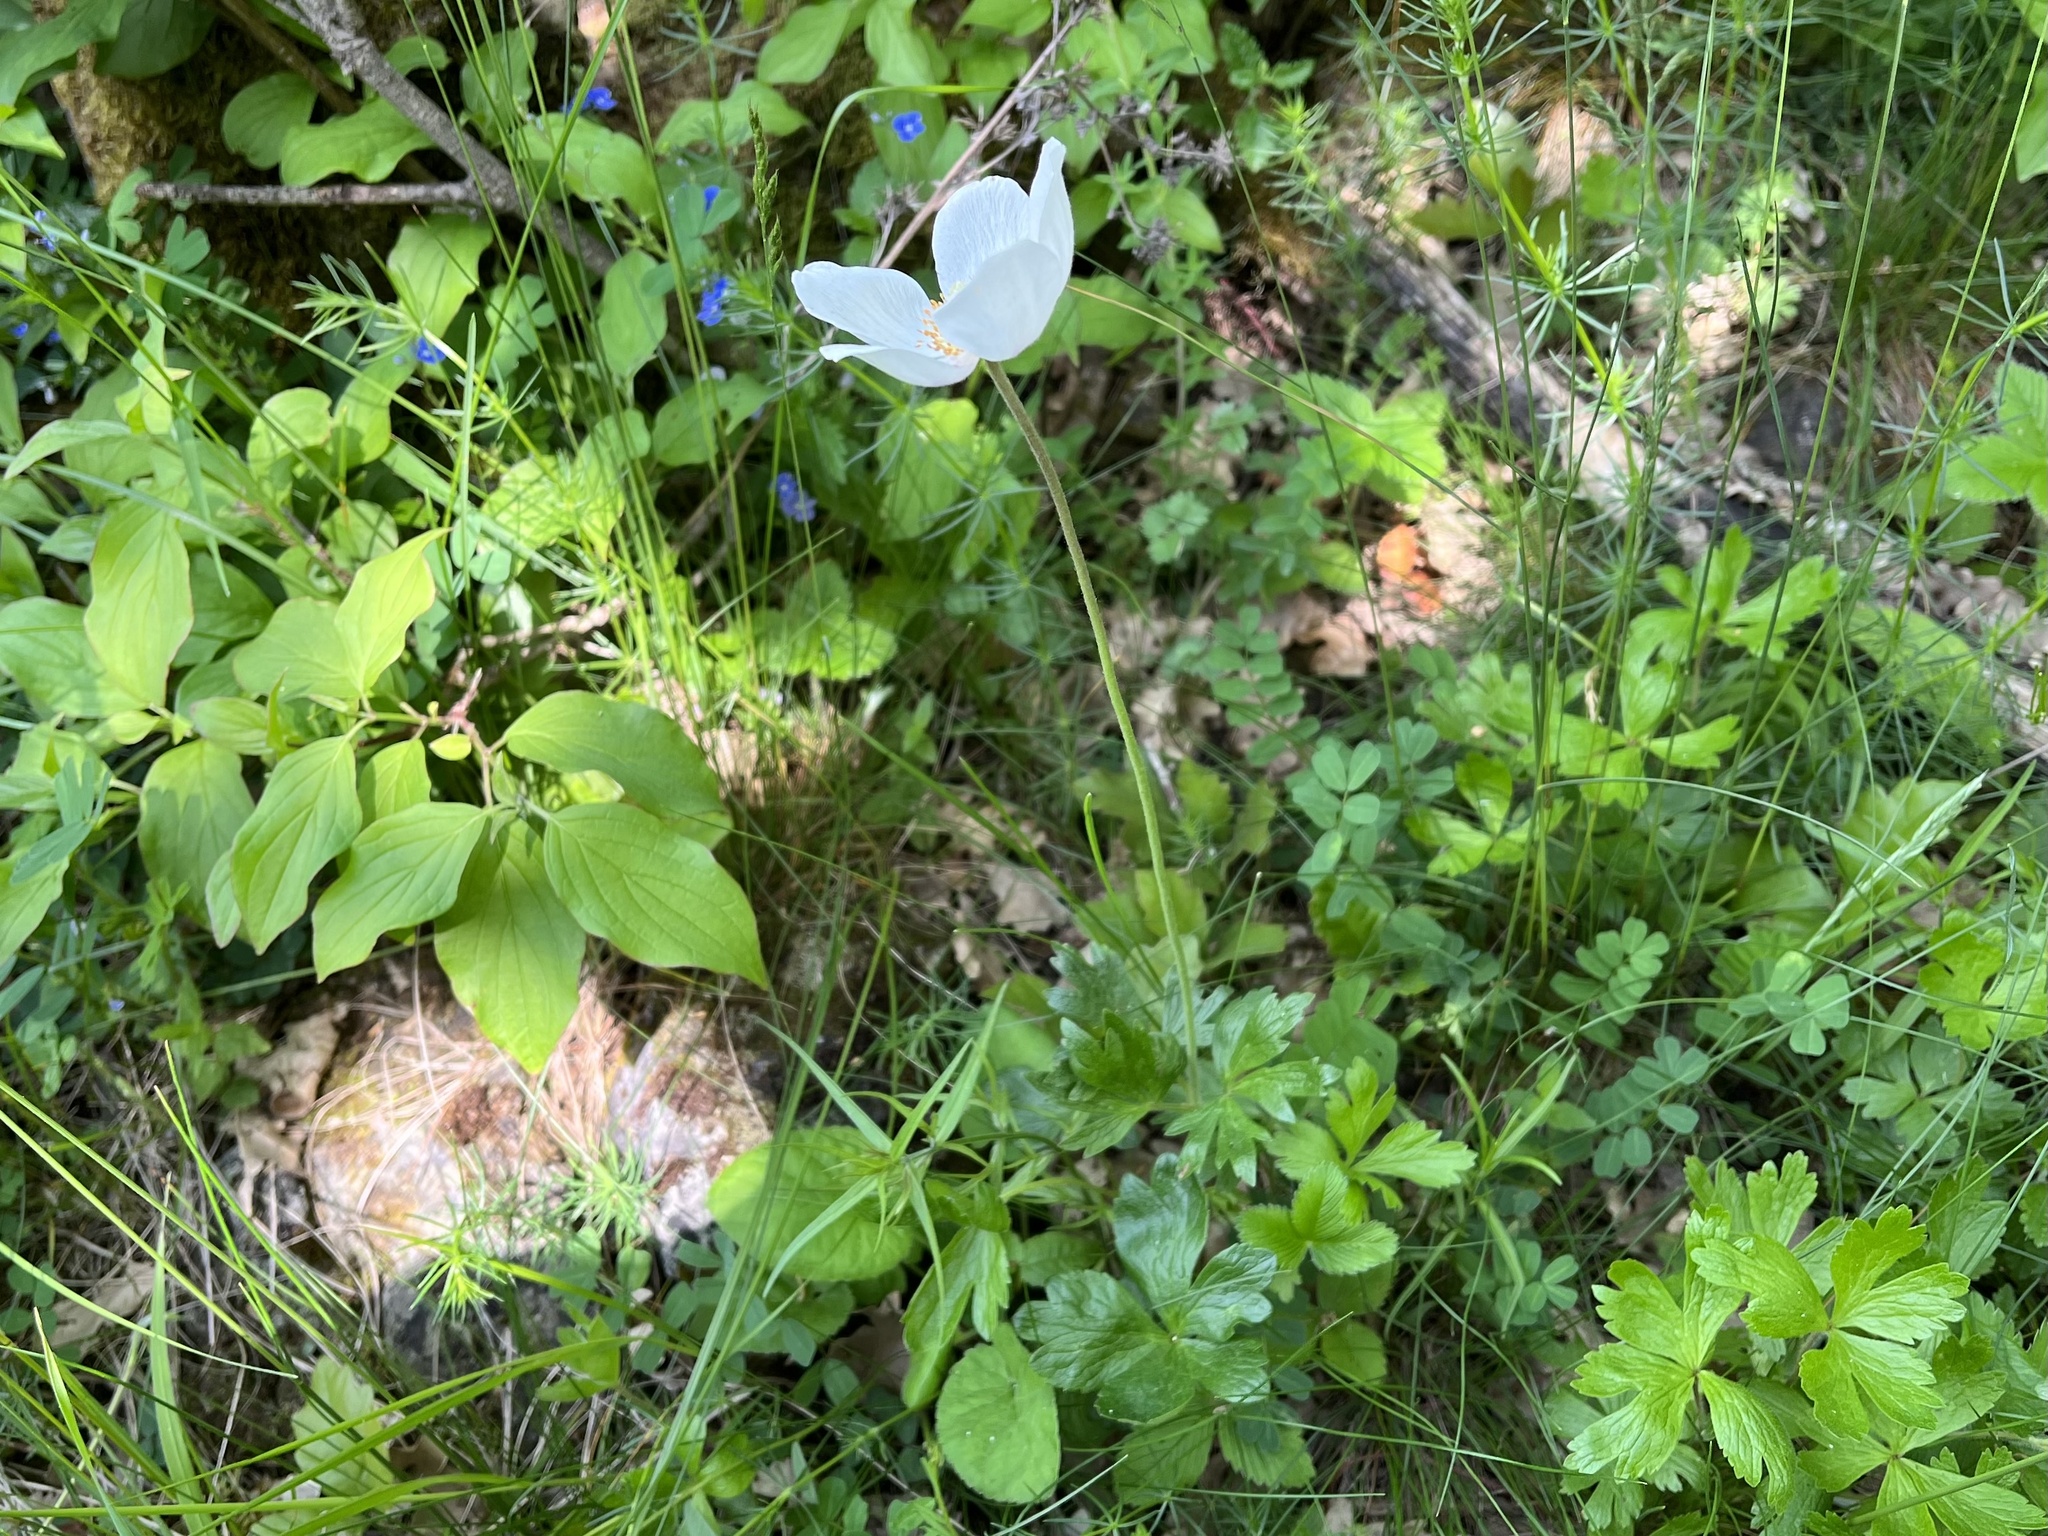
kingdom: Plantae
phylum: Tracheophyta
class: Magnoliopsida
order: Ranunculales
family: Ranunculaceae
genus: Anemone
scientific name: Anemone sylvestris
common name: Snowdrop anemone
